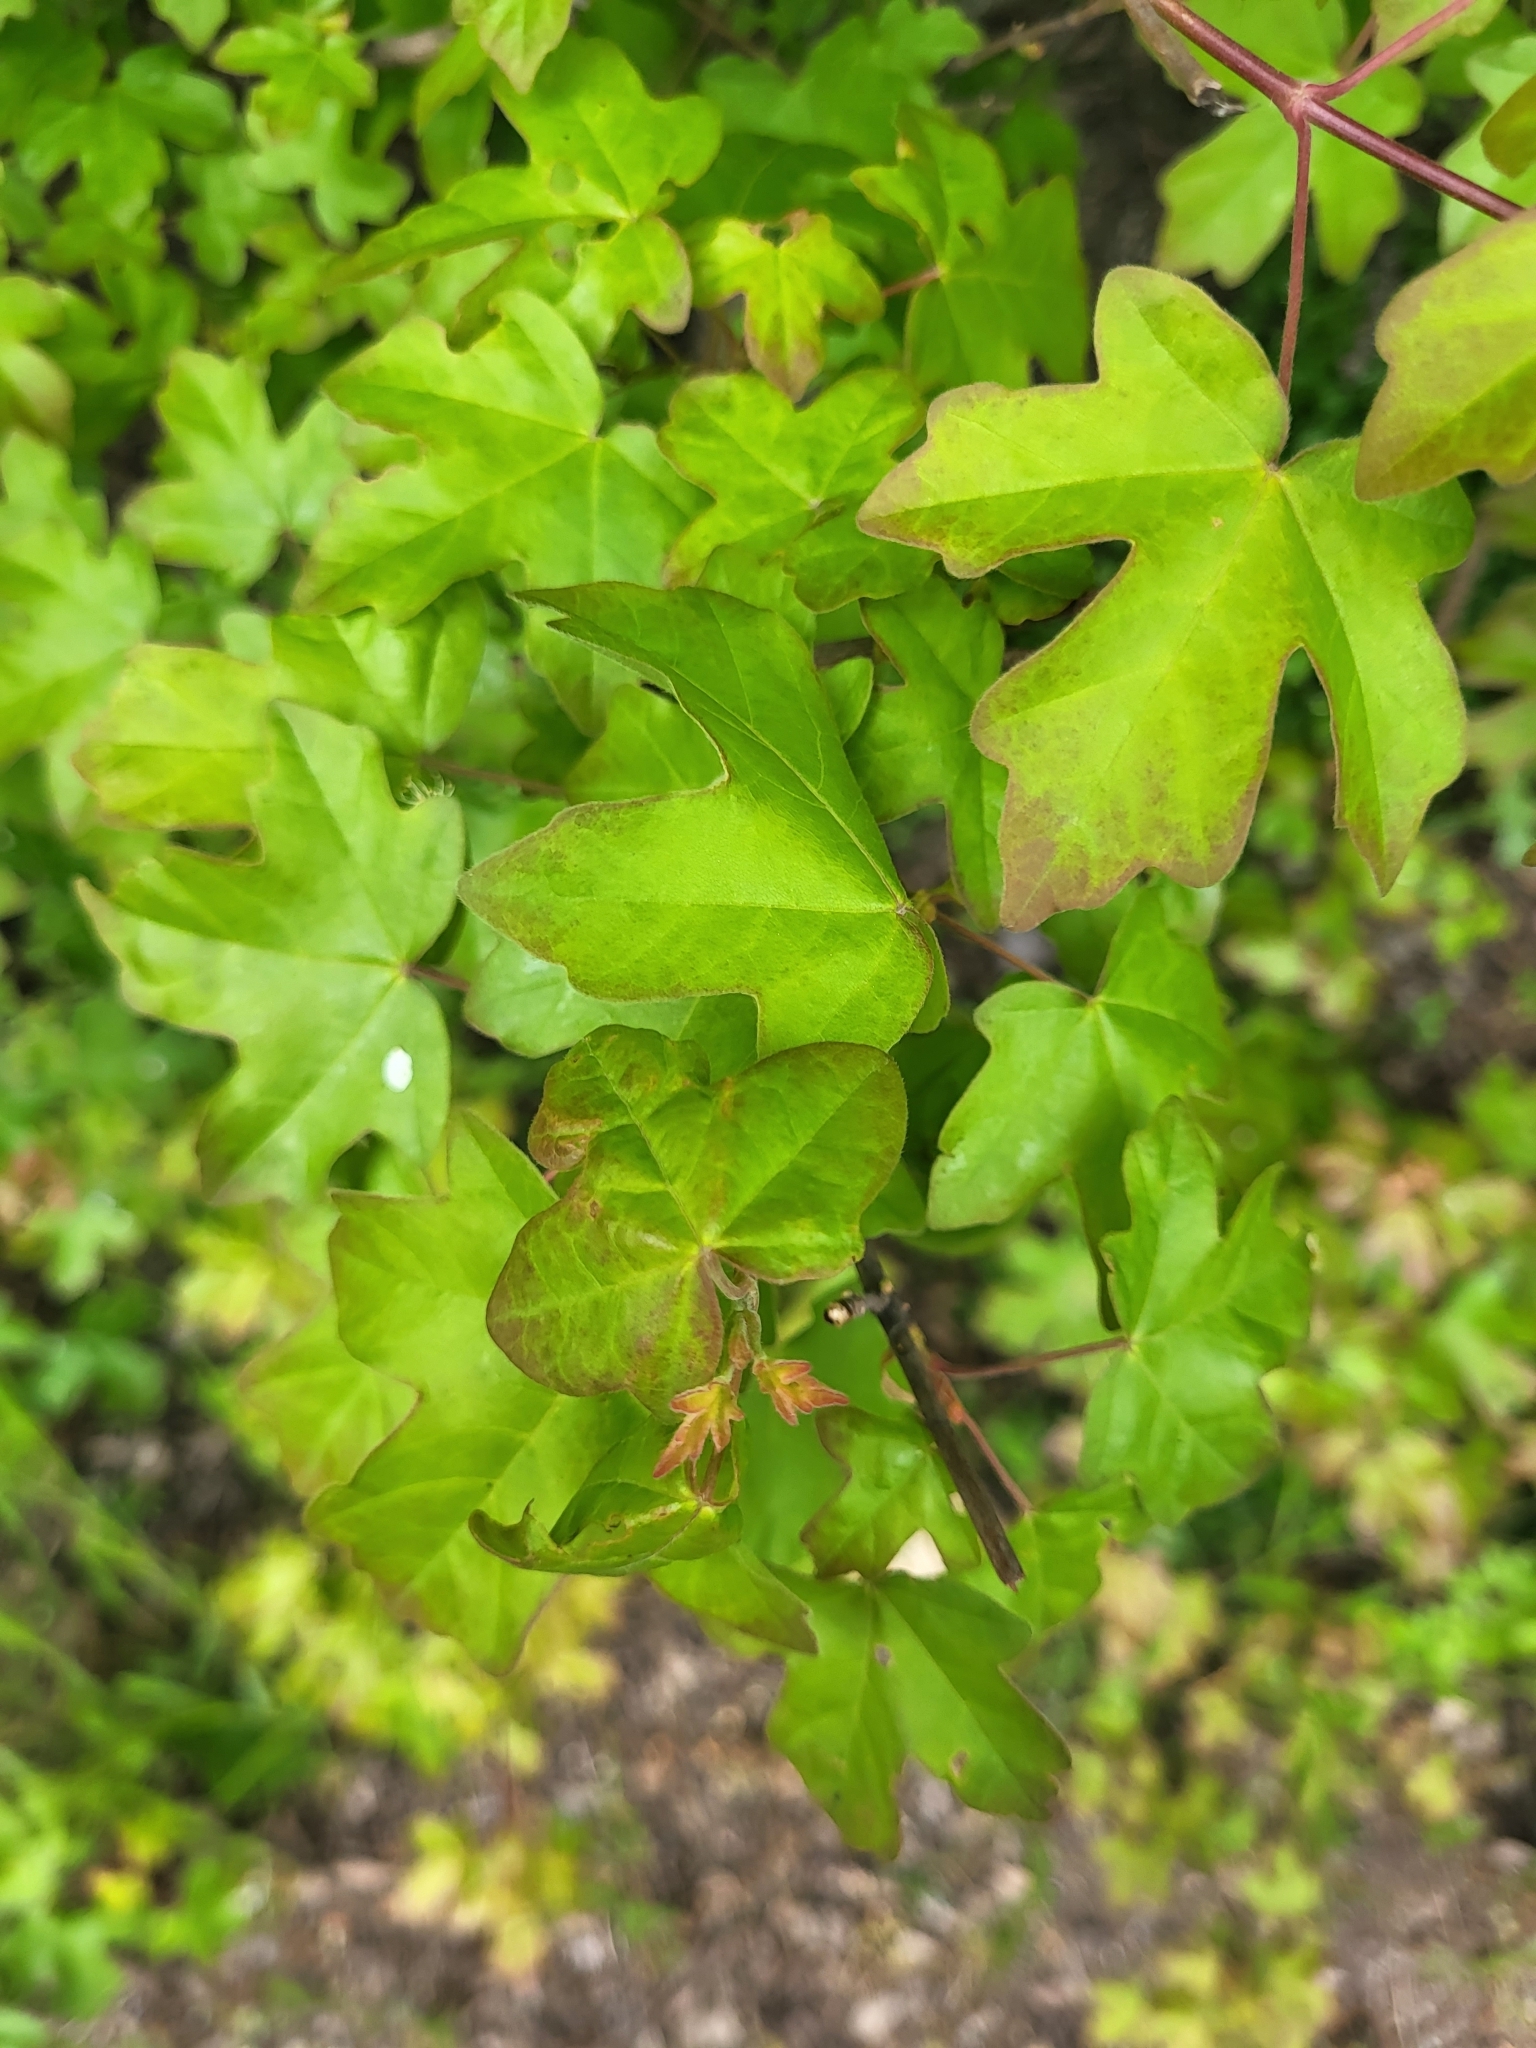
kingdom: Plantae
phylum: Tracheophyta
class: Magnoliopsida
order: Sapindales
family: Sapindaceae
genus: Acer
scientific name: Acer campestre
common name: Field maple
